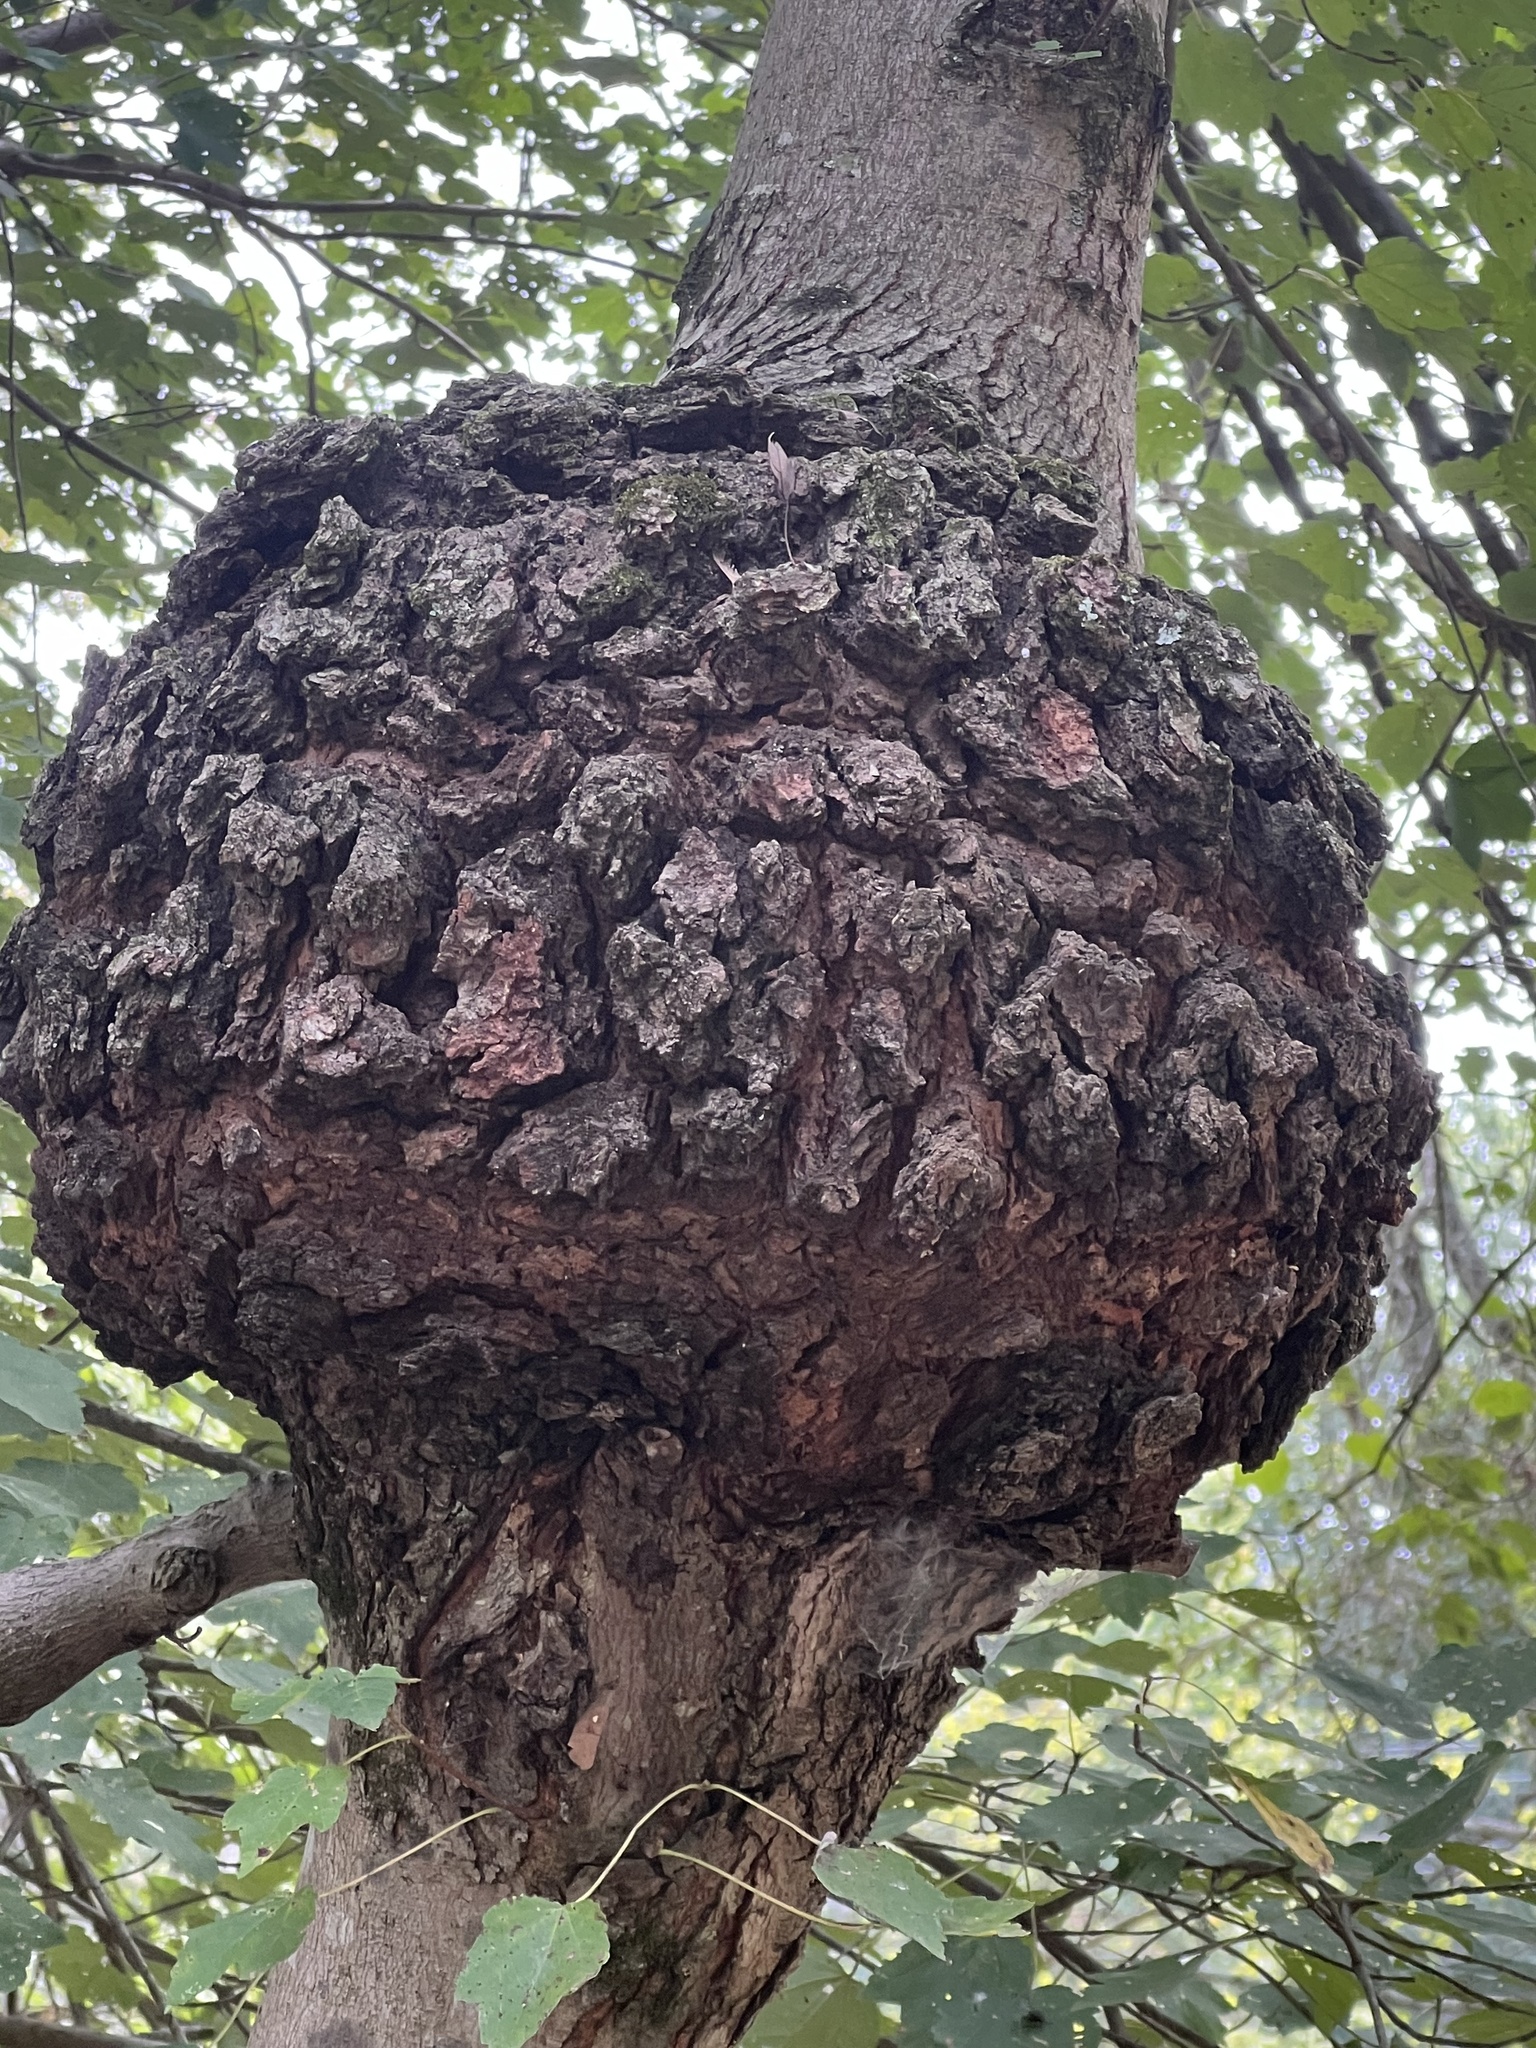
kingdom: Bacteria
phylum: Proteobacteria
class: Alphaproteobacteria
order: Rhizobiales
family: Rhizobiaceae
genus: Rhizobium
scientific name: Rhizobium Agrobacterium radiobacter
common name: Bacterial crown gall
